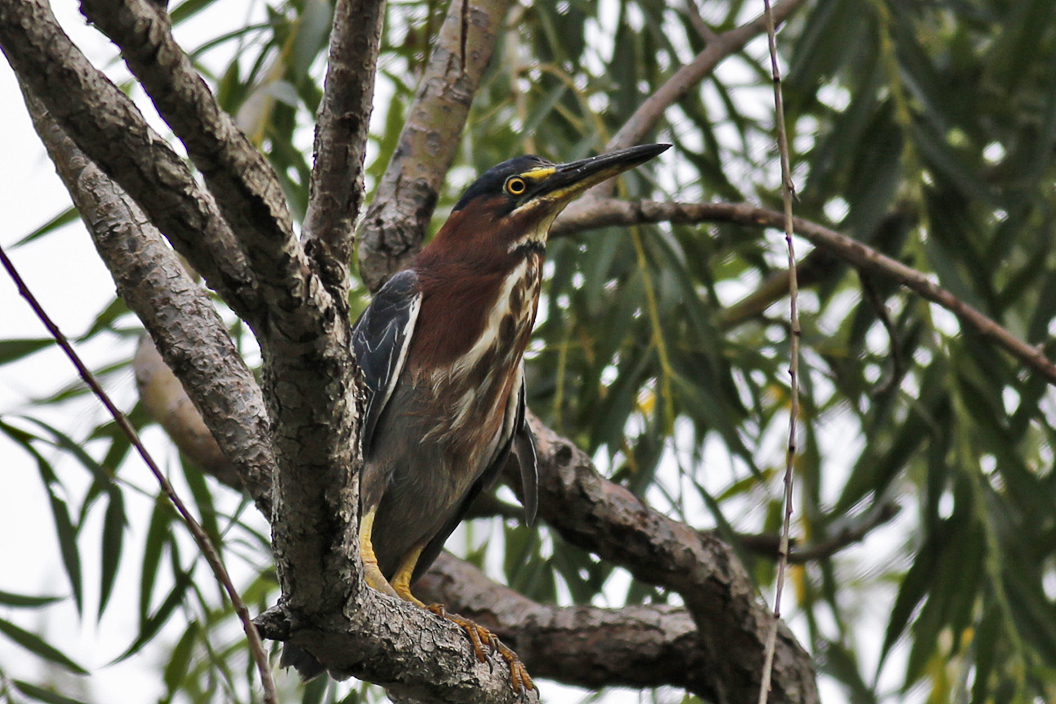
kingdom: Animalia
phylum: Chordata
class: Aves
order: Pelecaniformes
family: Ardeidae
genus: Butorides
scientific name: Butorides virescens
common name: Green heron
